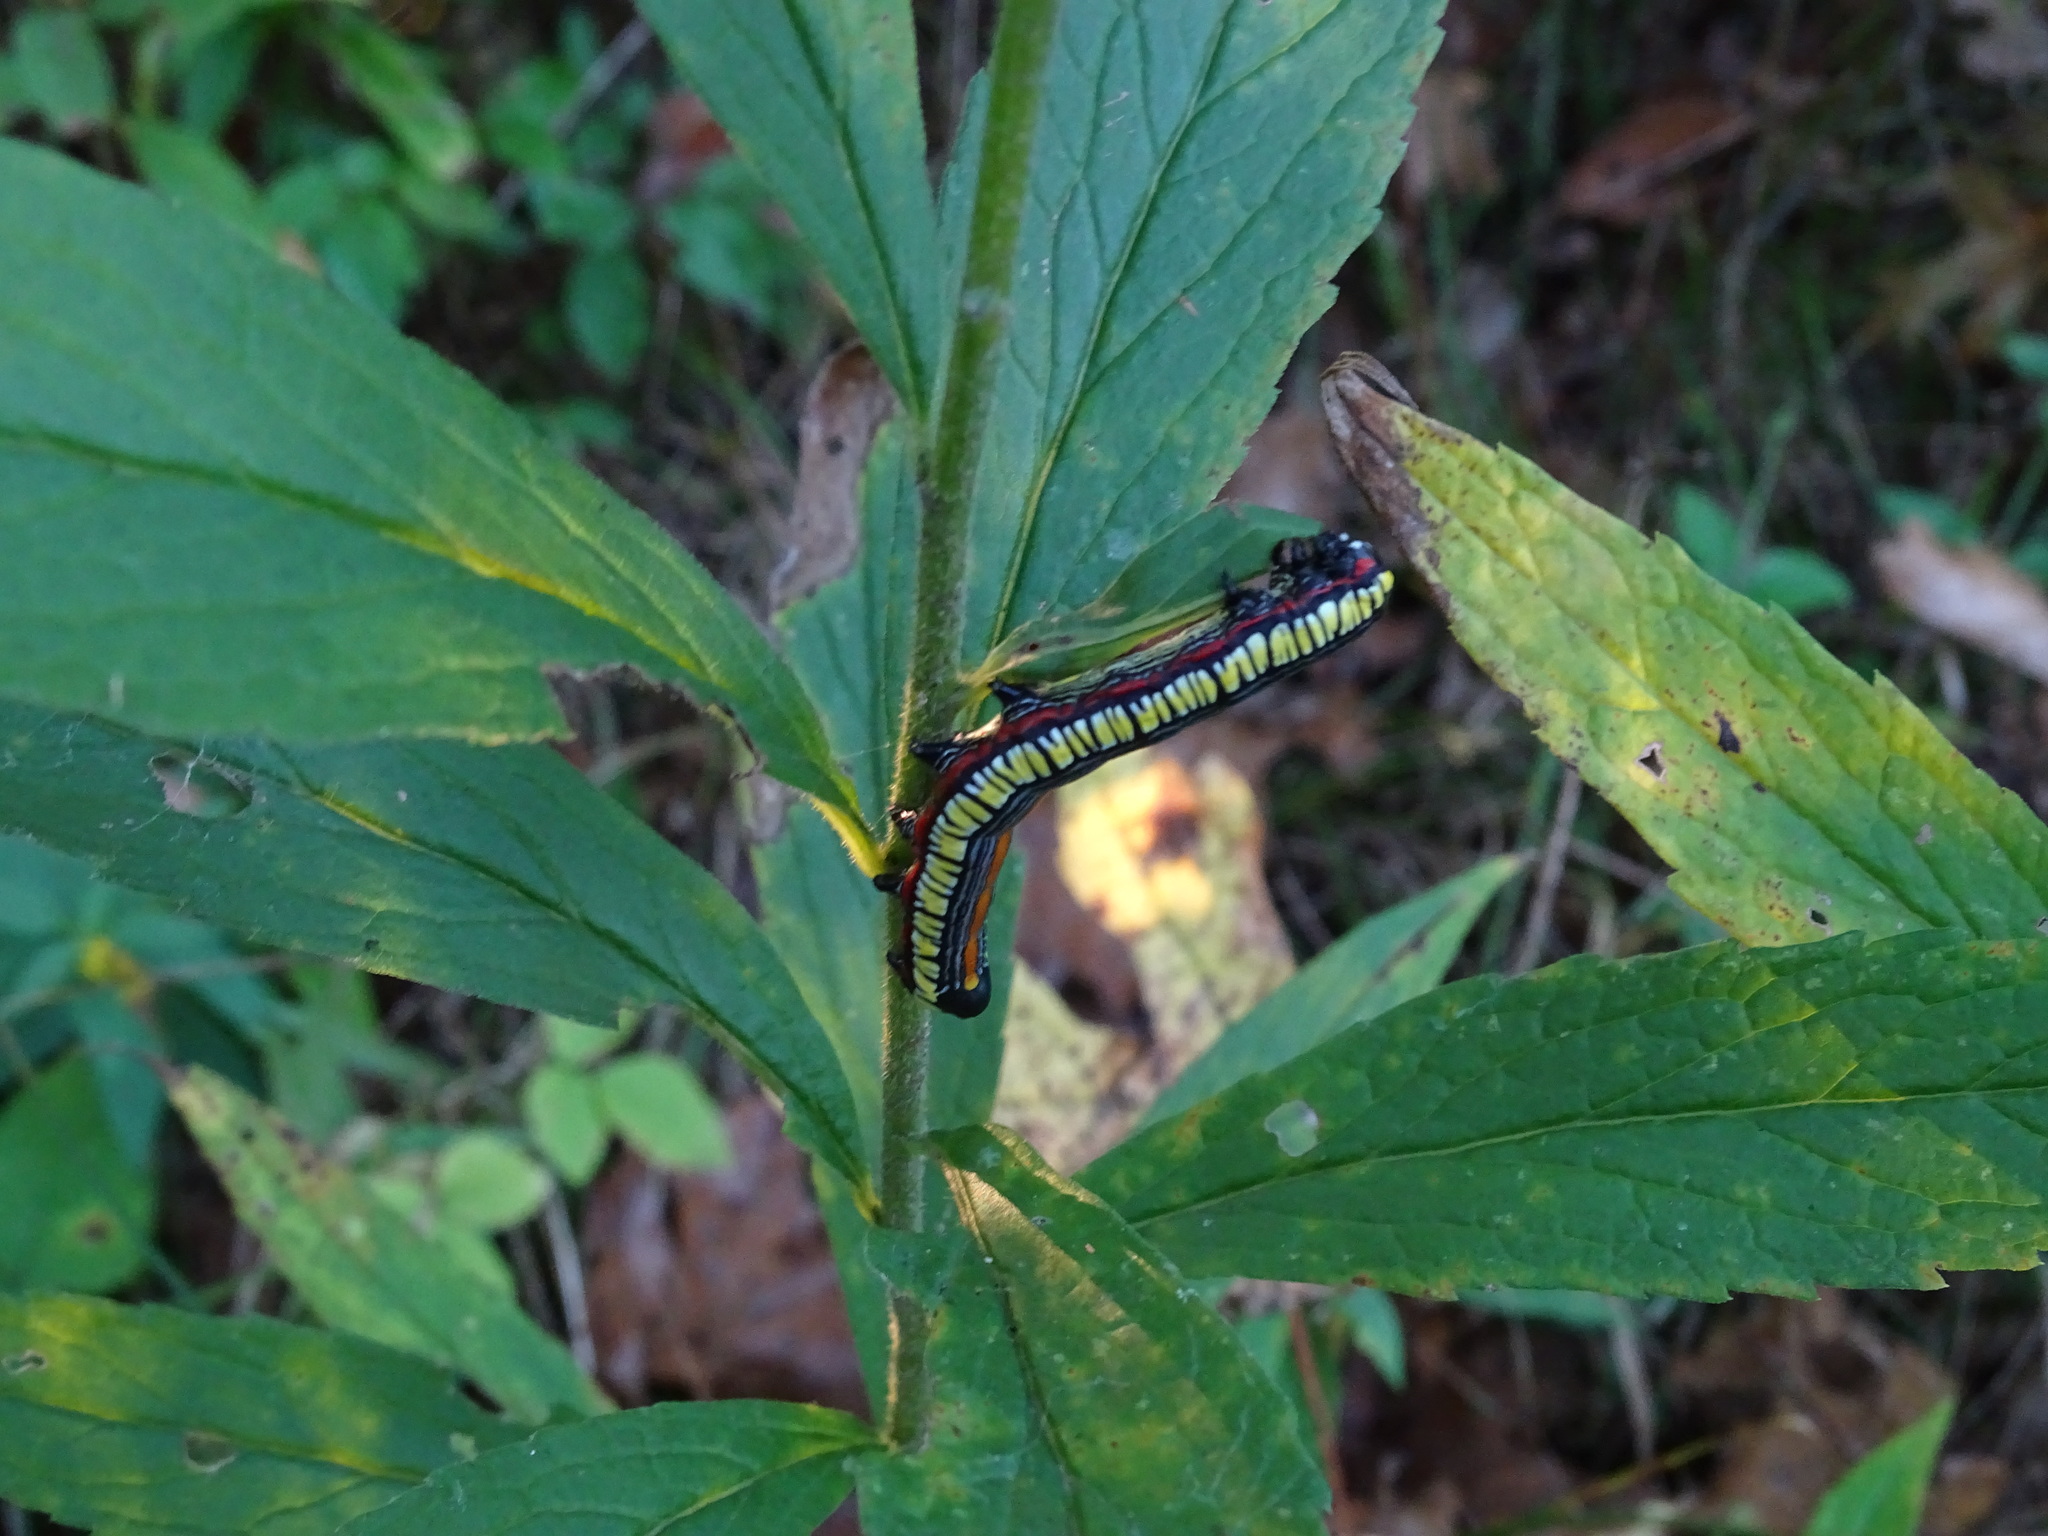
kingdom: Animalia
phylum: Arthropoda
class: Insecta
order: Lepidoptera
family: Noctuidae
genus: Cucullia
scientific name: Cucullia convexipennis
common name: Brown-hooded owlet
